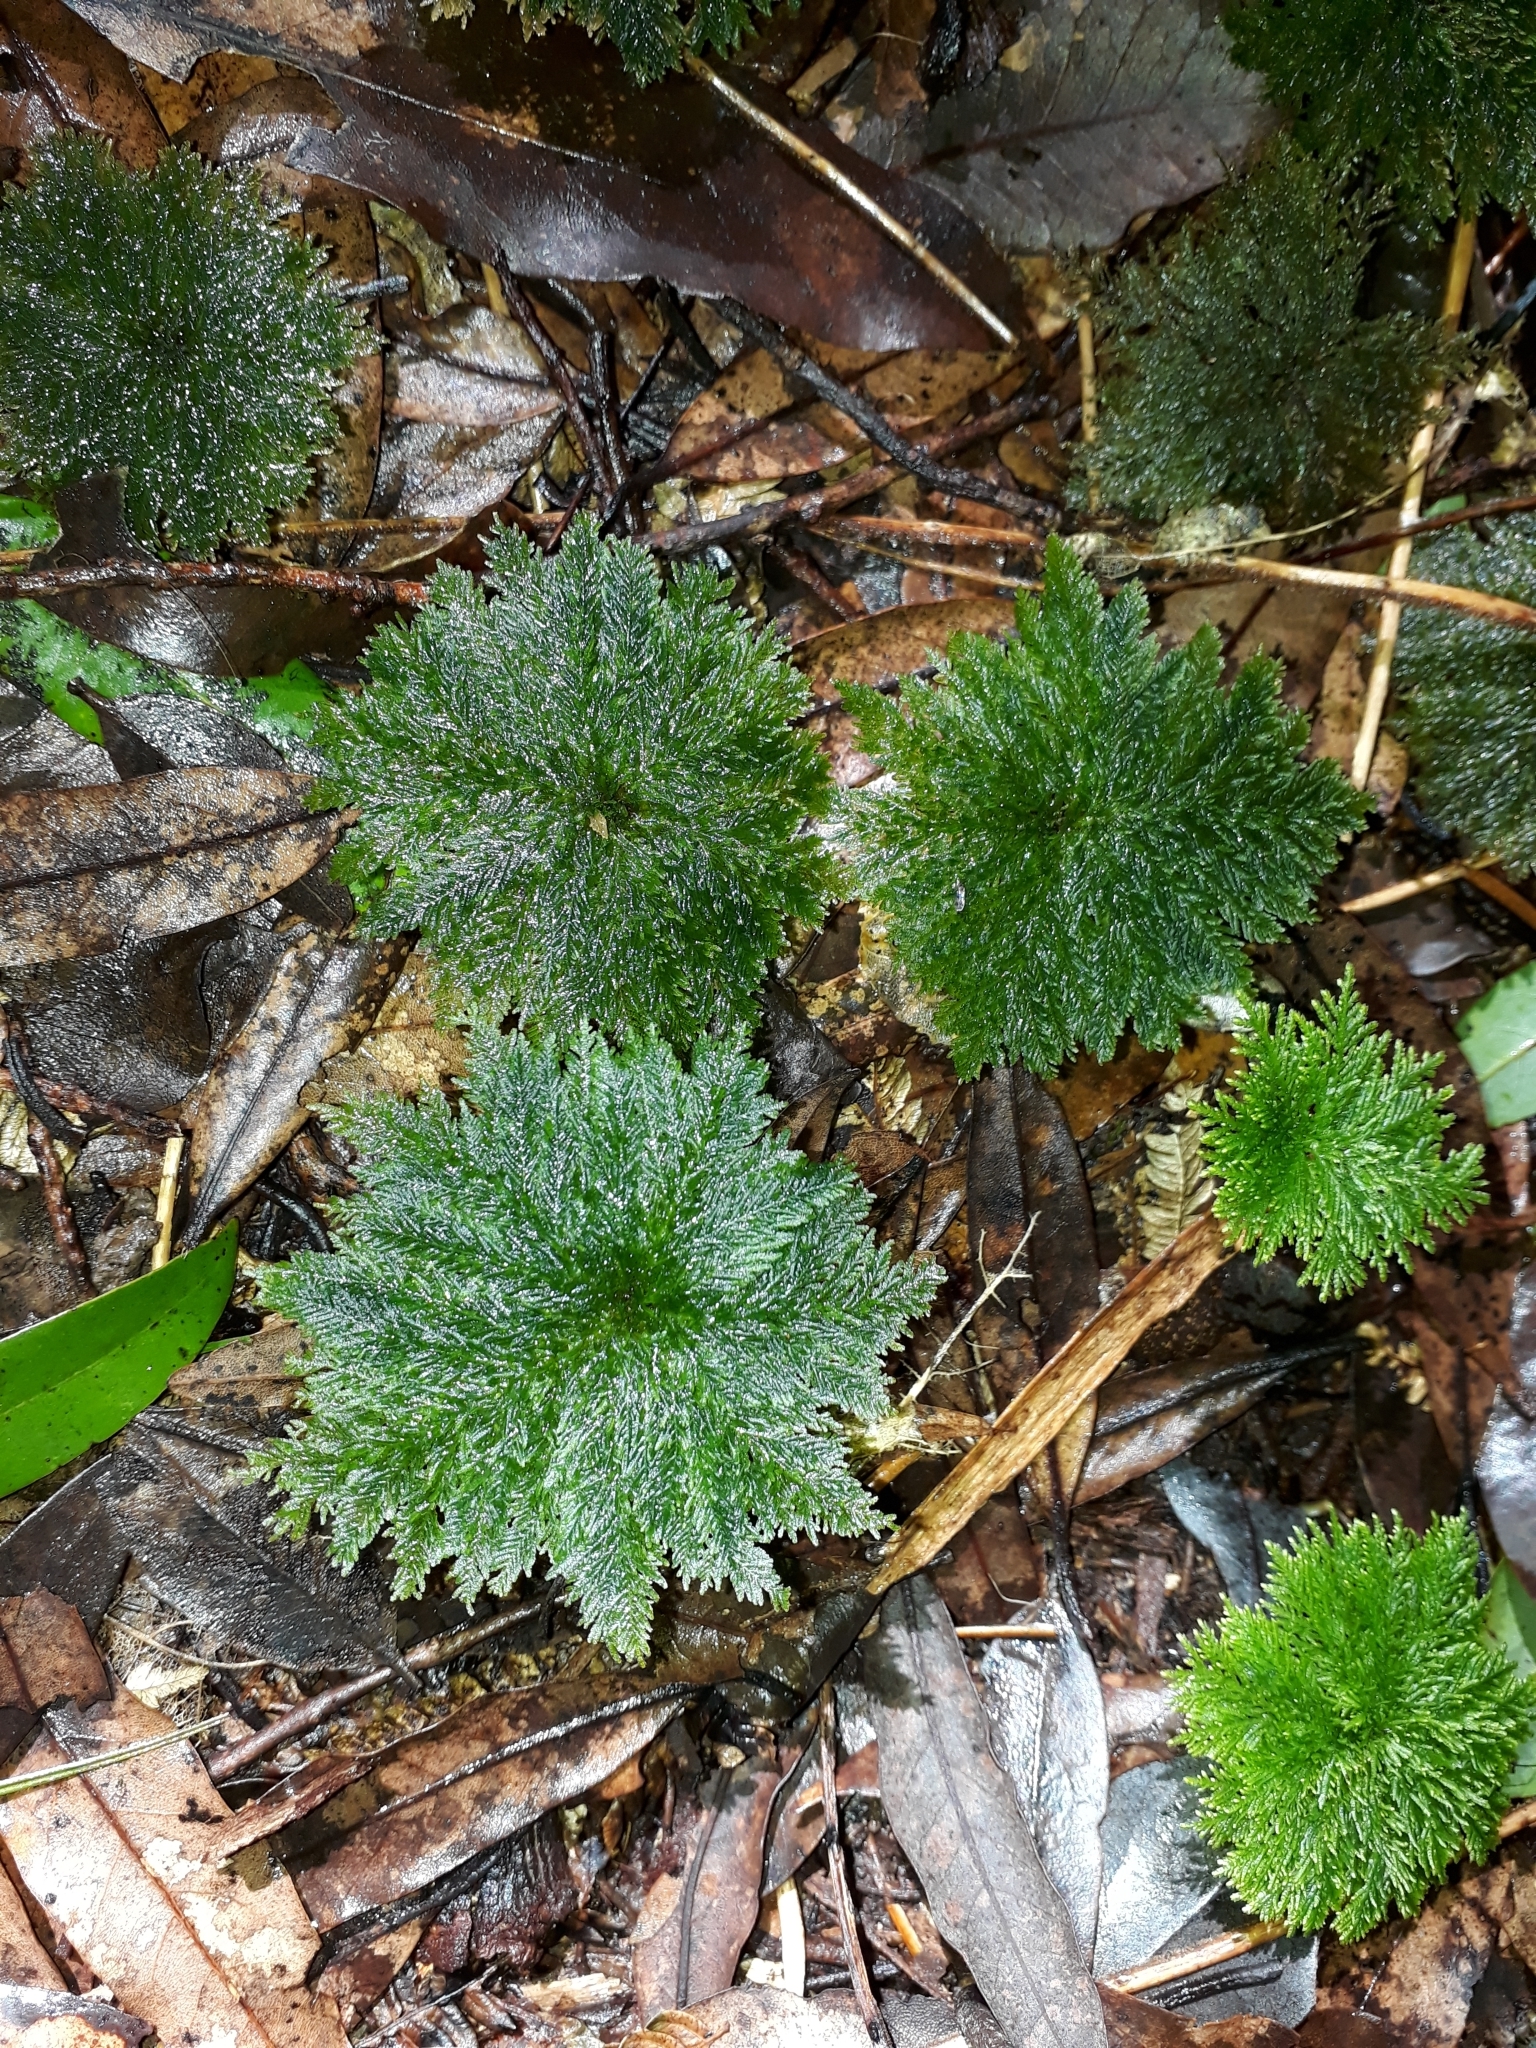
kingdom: Plantae
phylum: Bryophyta
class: Bryopsida
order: Hypopterygiales
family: Hypopterygiaceae
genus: Dendrohypopterygium
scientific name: Dendrohypopterygium filiculiforme
